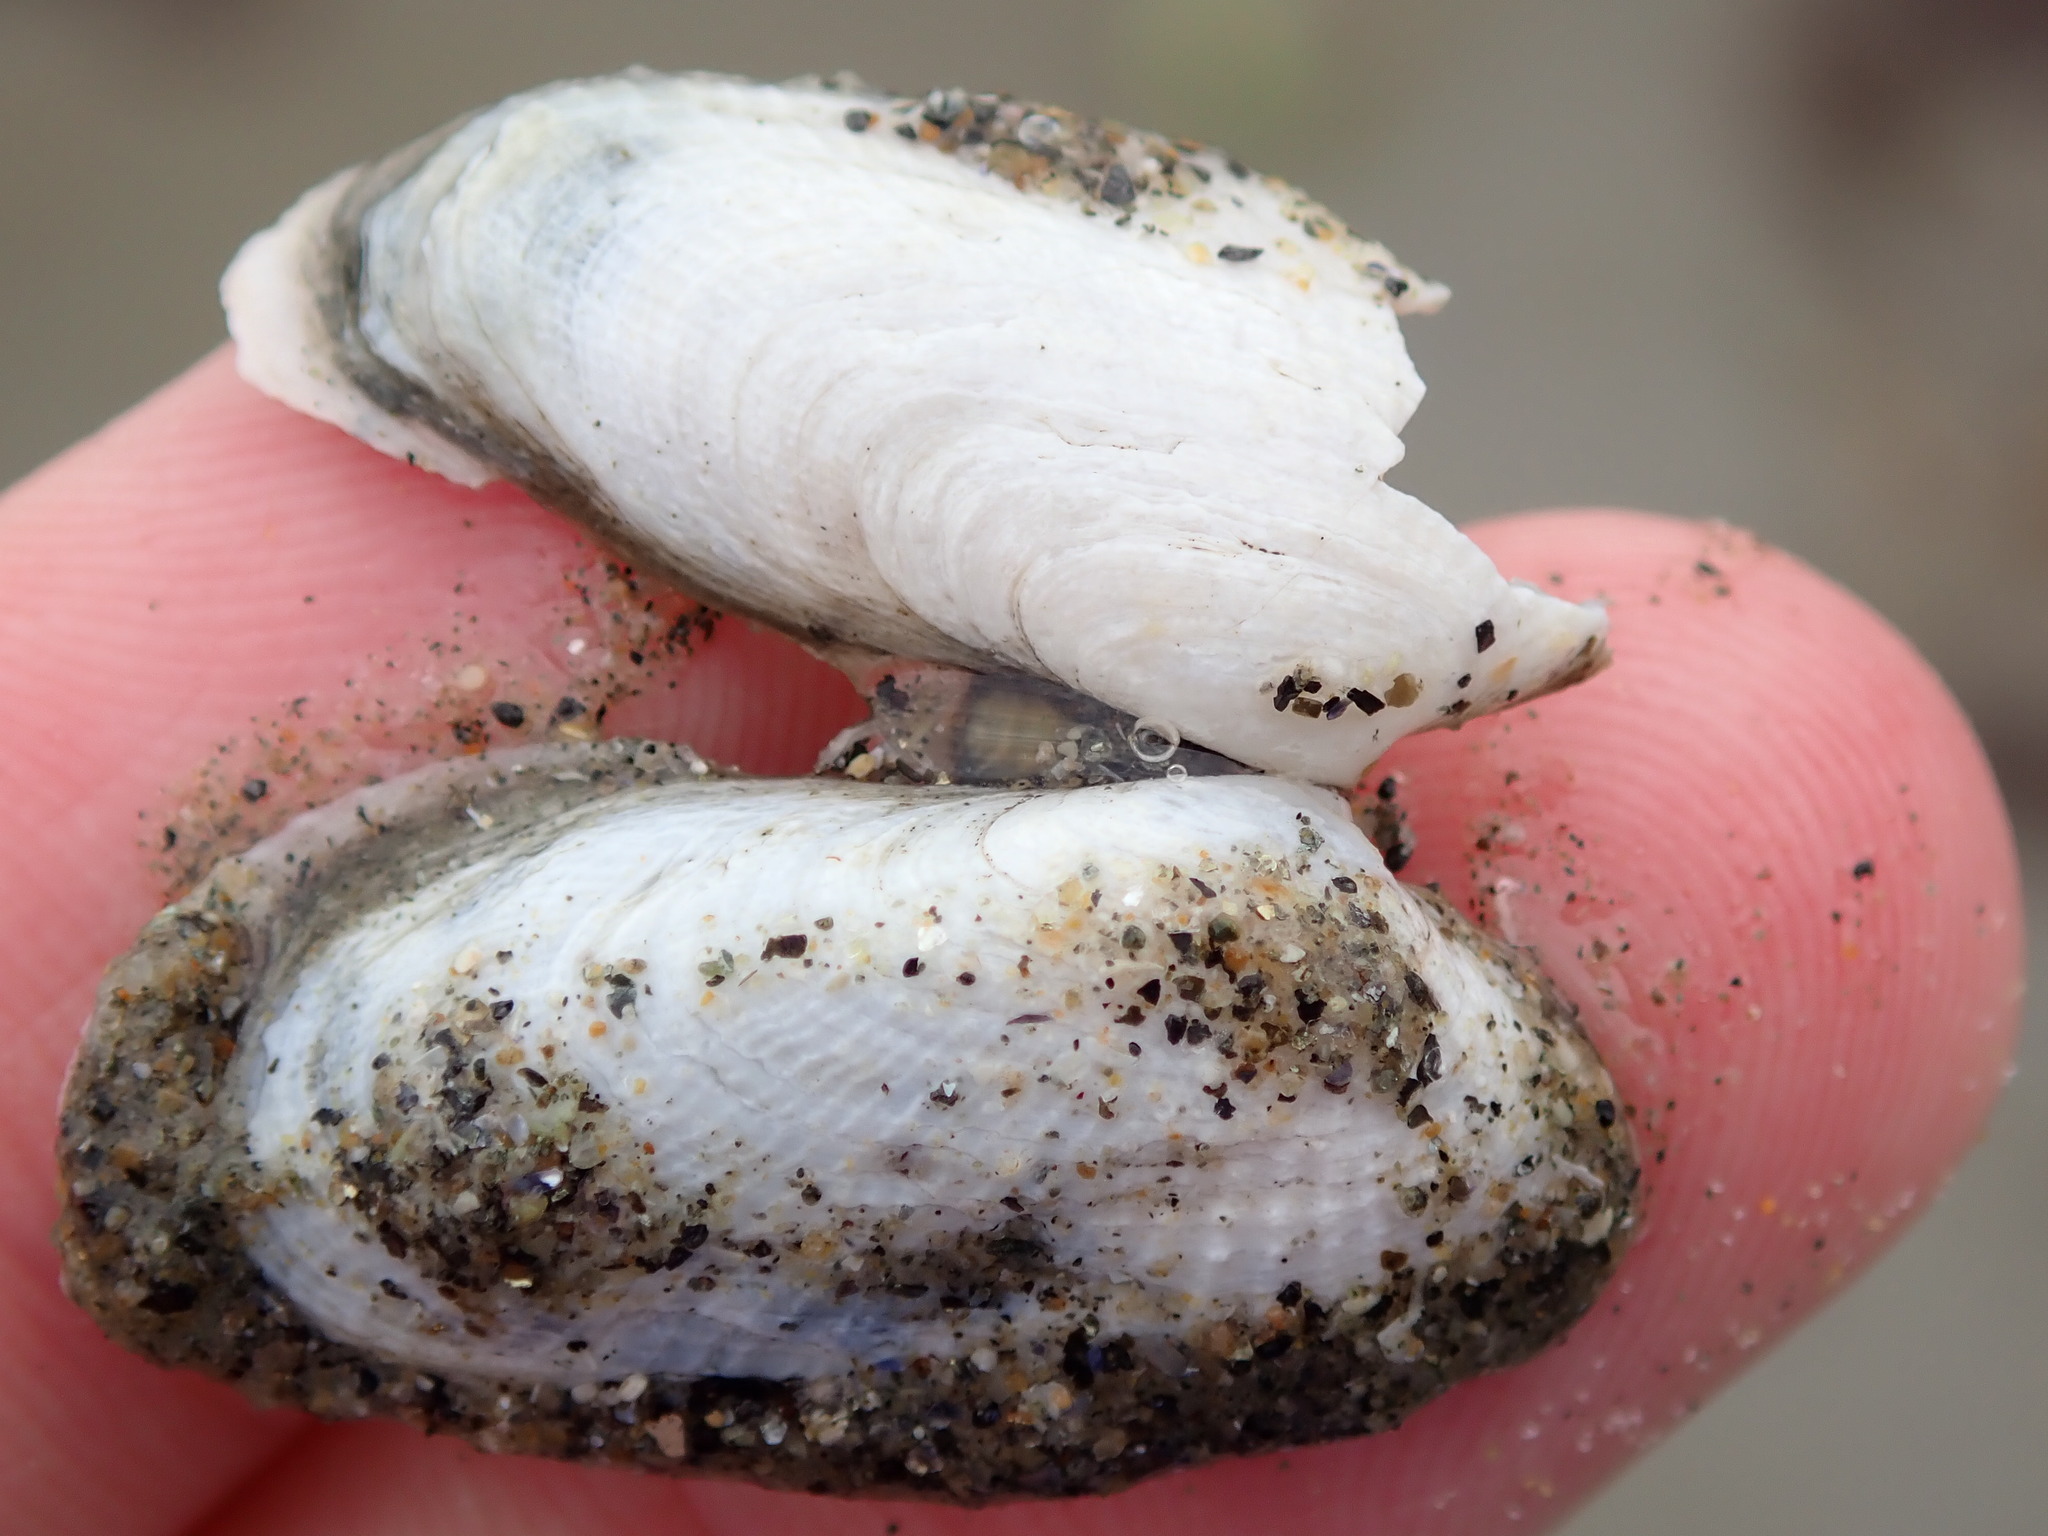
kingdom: Animalia
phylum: Mollusca
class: Bivalvia
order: Venerida
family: Veneridae
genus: Petricolaria
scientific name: Petricolaria pholadiformis
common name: American piddock
